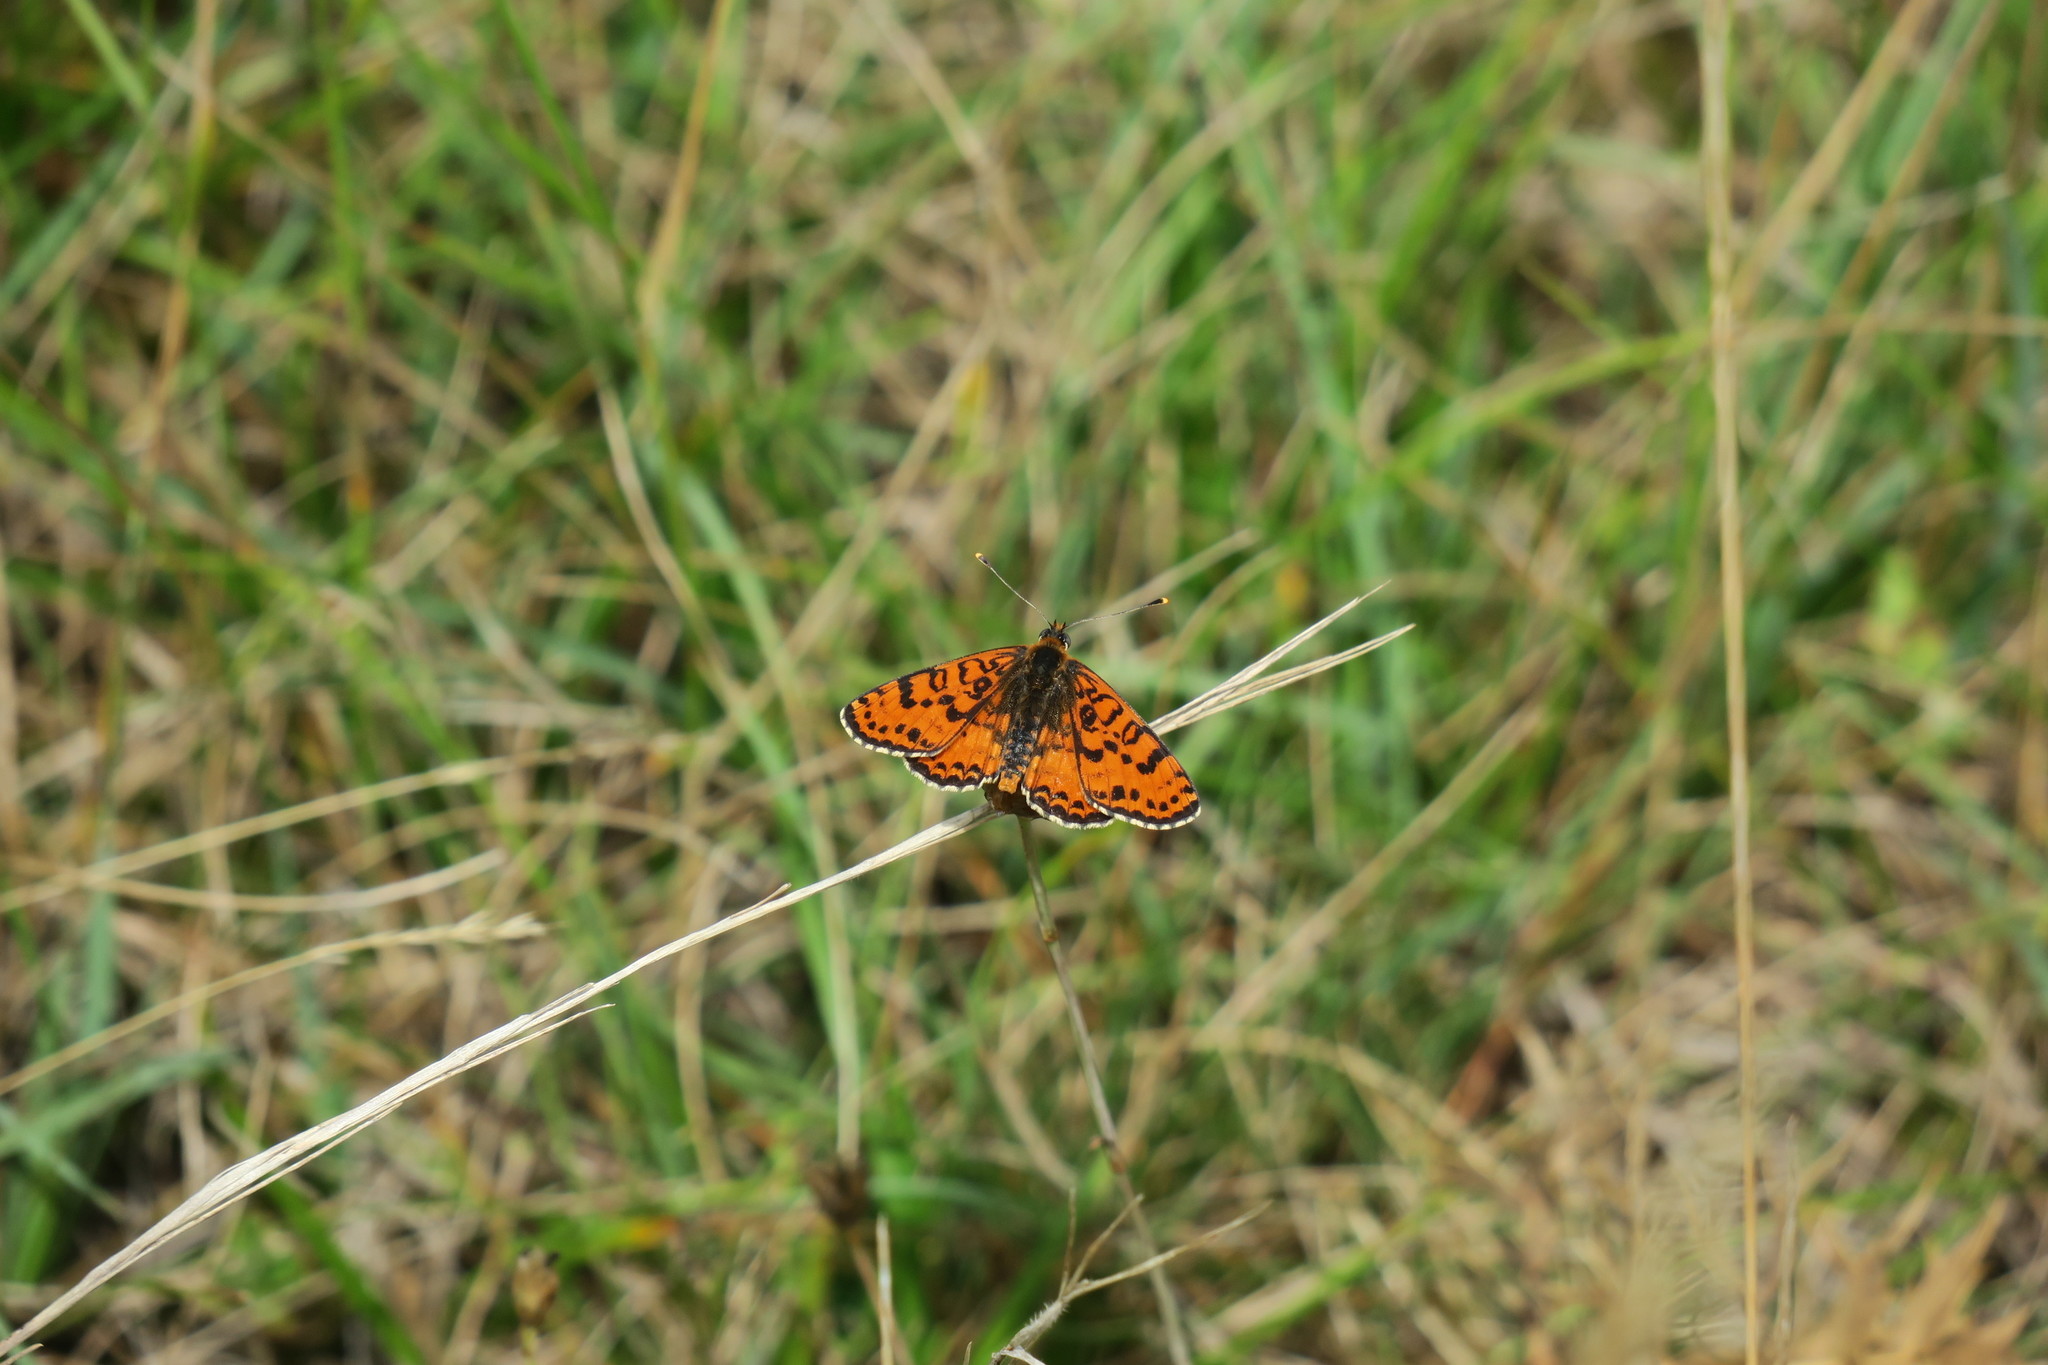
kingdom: Animalia
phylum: Arthropoda
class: Insecta
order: Lepidoptera
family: Nymphalidae
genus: Melitaea
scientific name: Melitaea didyma
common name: Spotted fritillary
